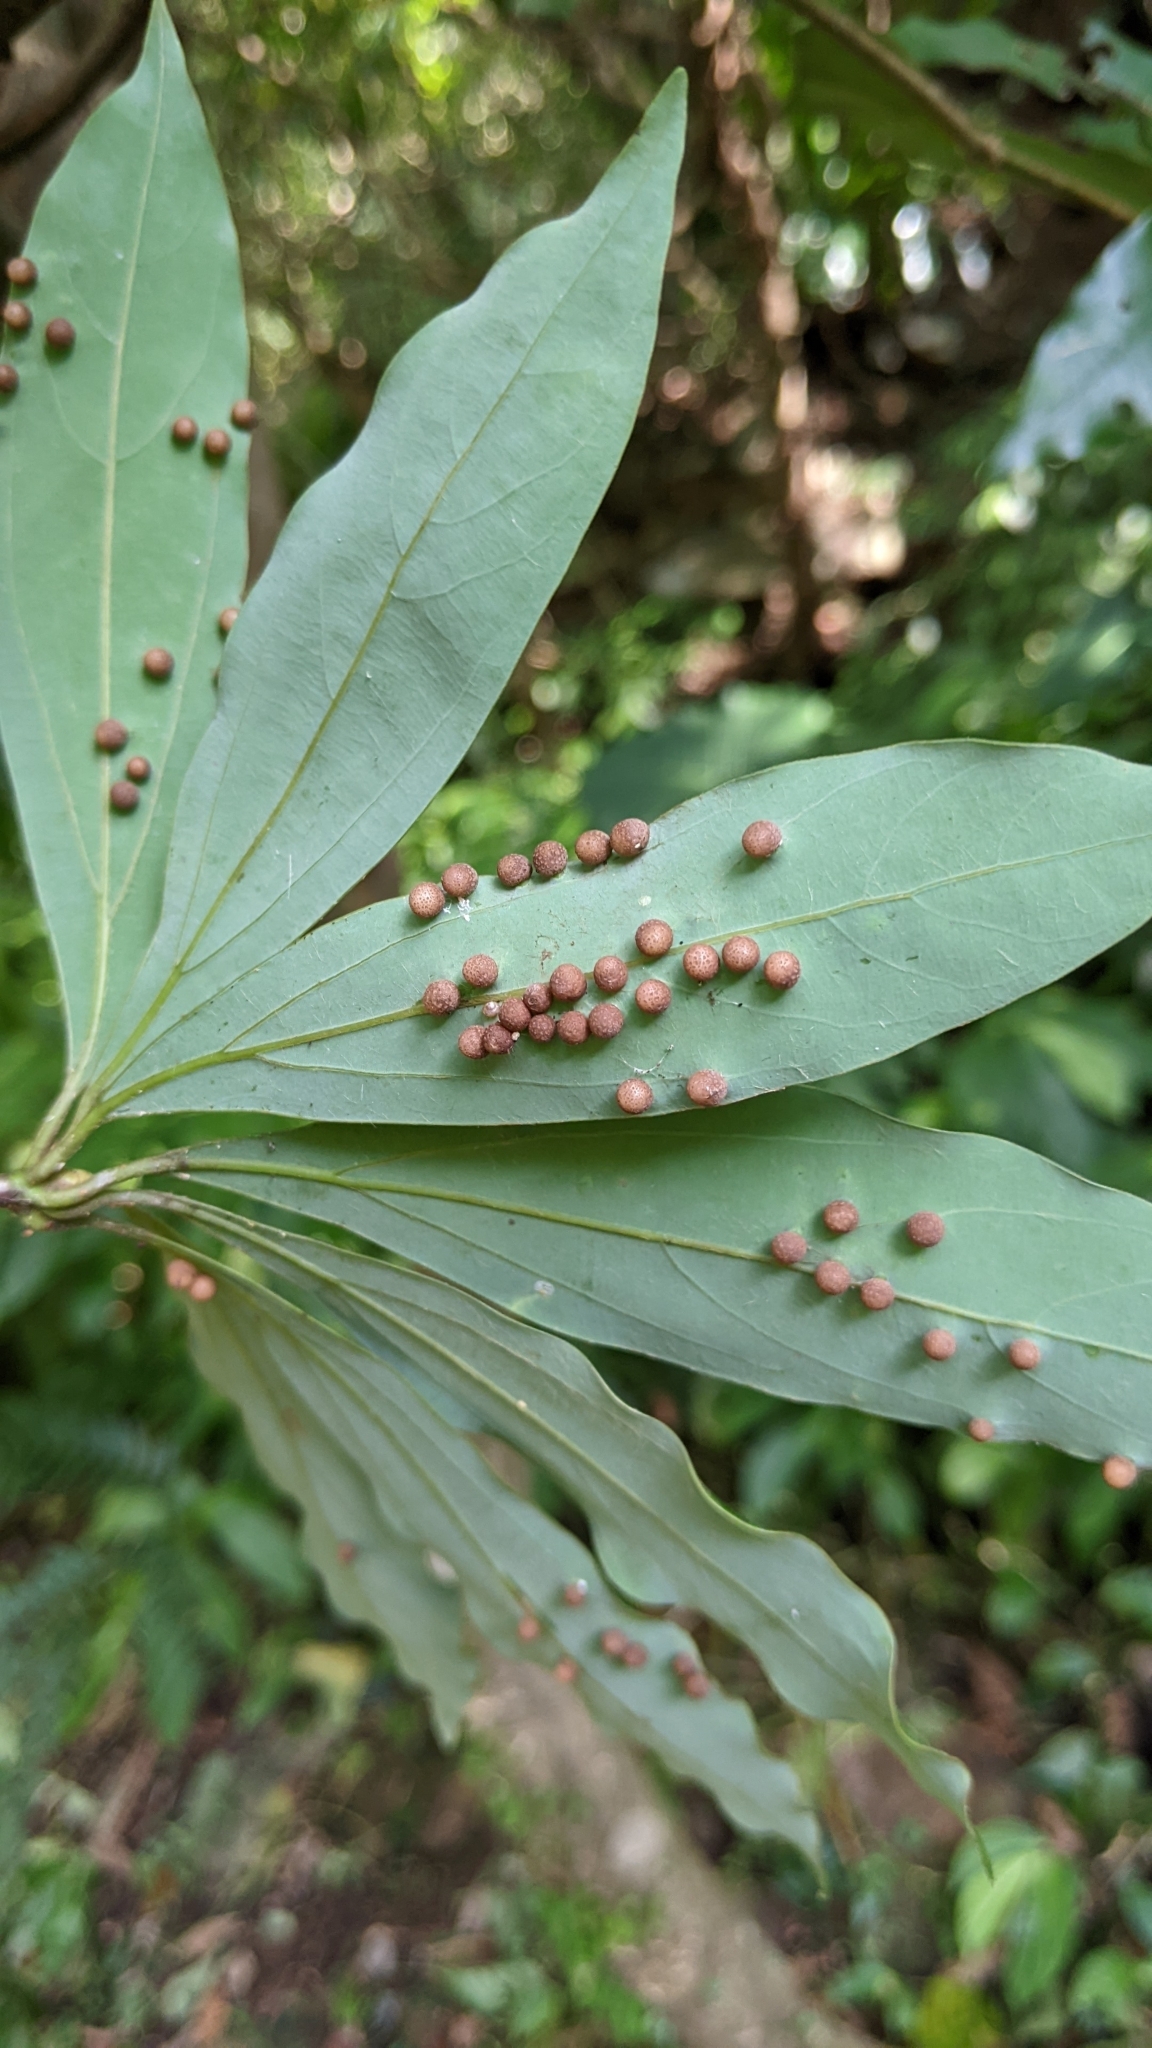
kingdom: Plantae
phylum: Tracheophyta
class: Magnoliopsida
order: Laurales
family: Lauraceae
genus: Neolitsea
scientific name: Neolitsea konishii
